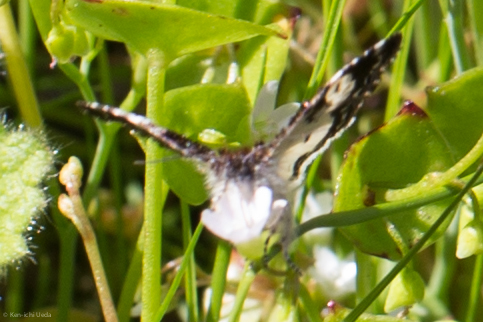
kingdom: Animalia
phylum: Arthropoda
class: Insecta
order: Lepidoptera
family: Noctuidae
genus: Annaphila
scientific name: Annaphila diva
